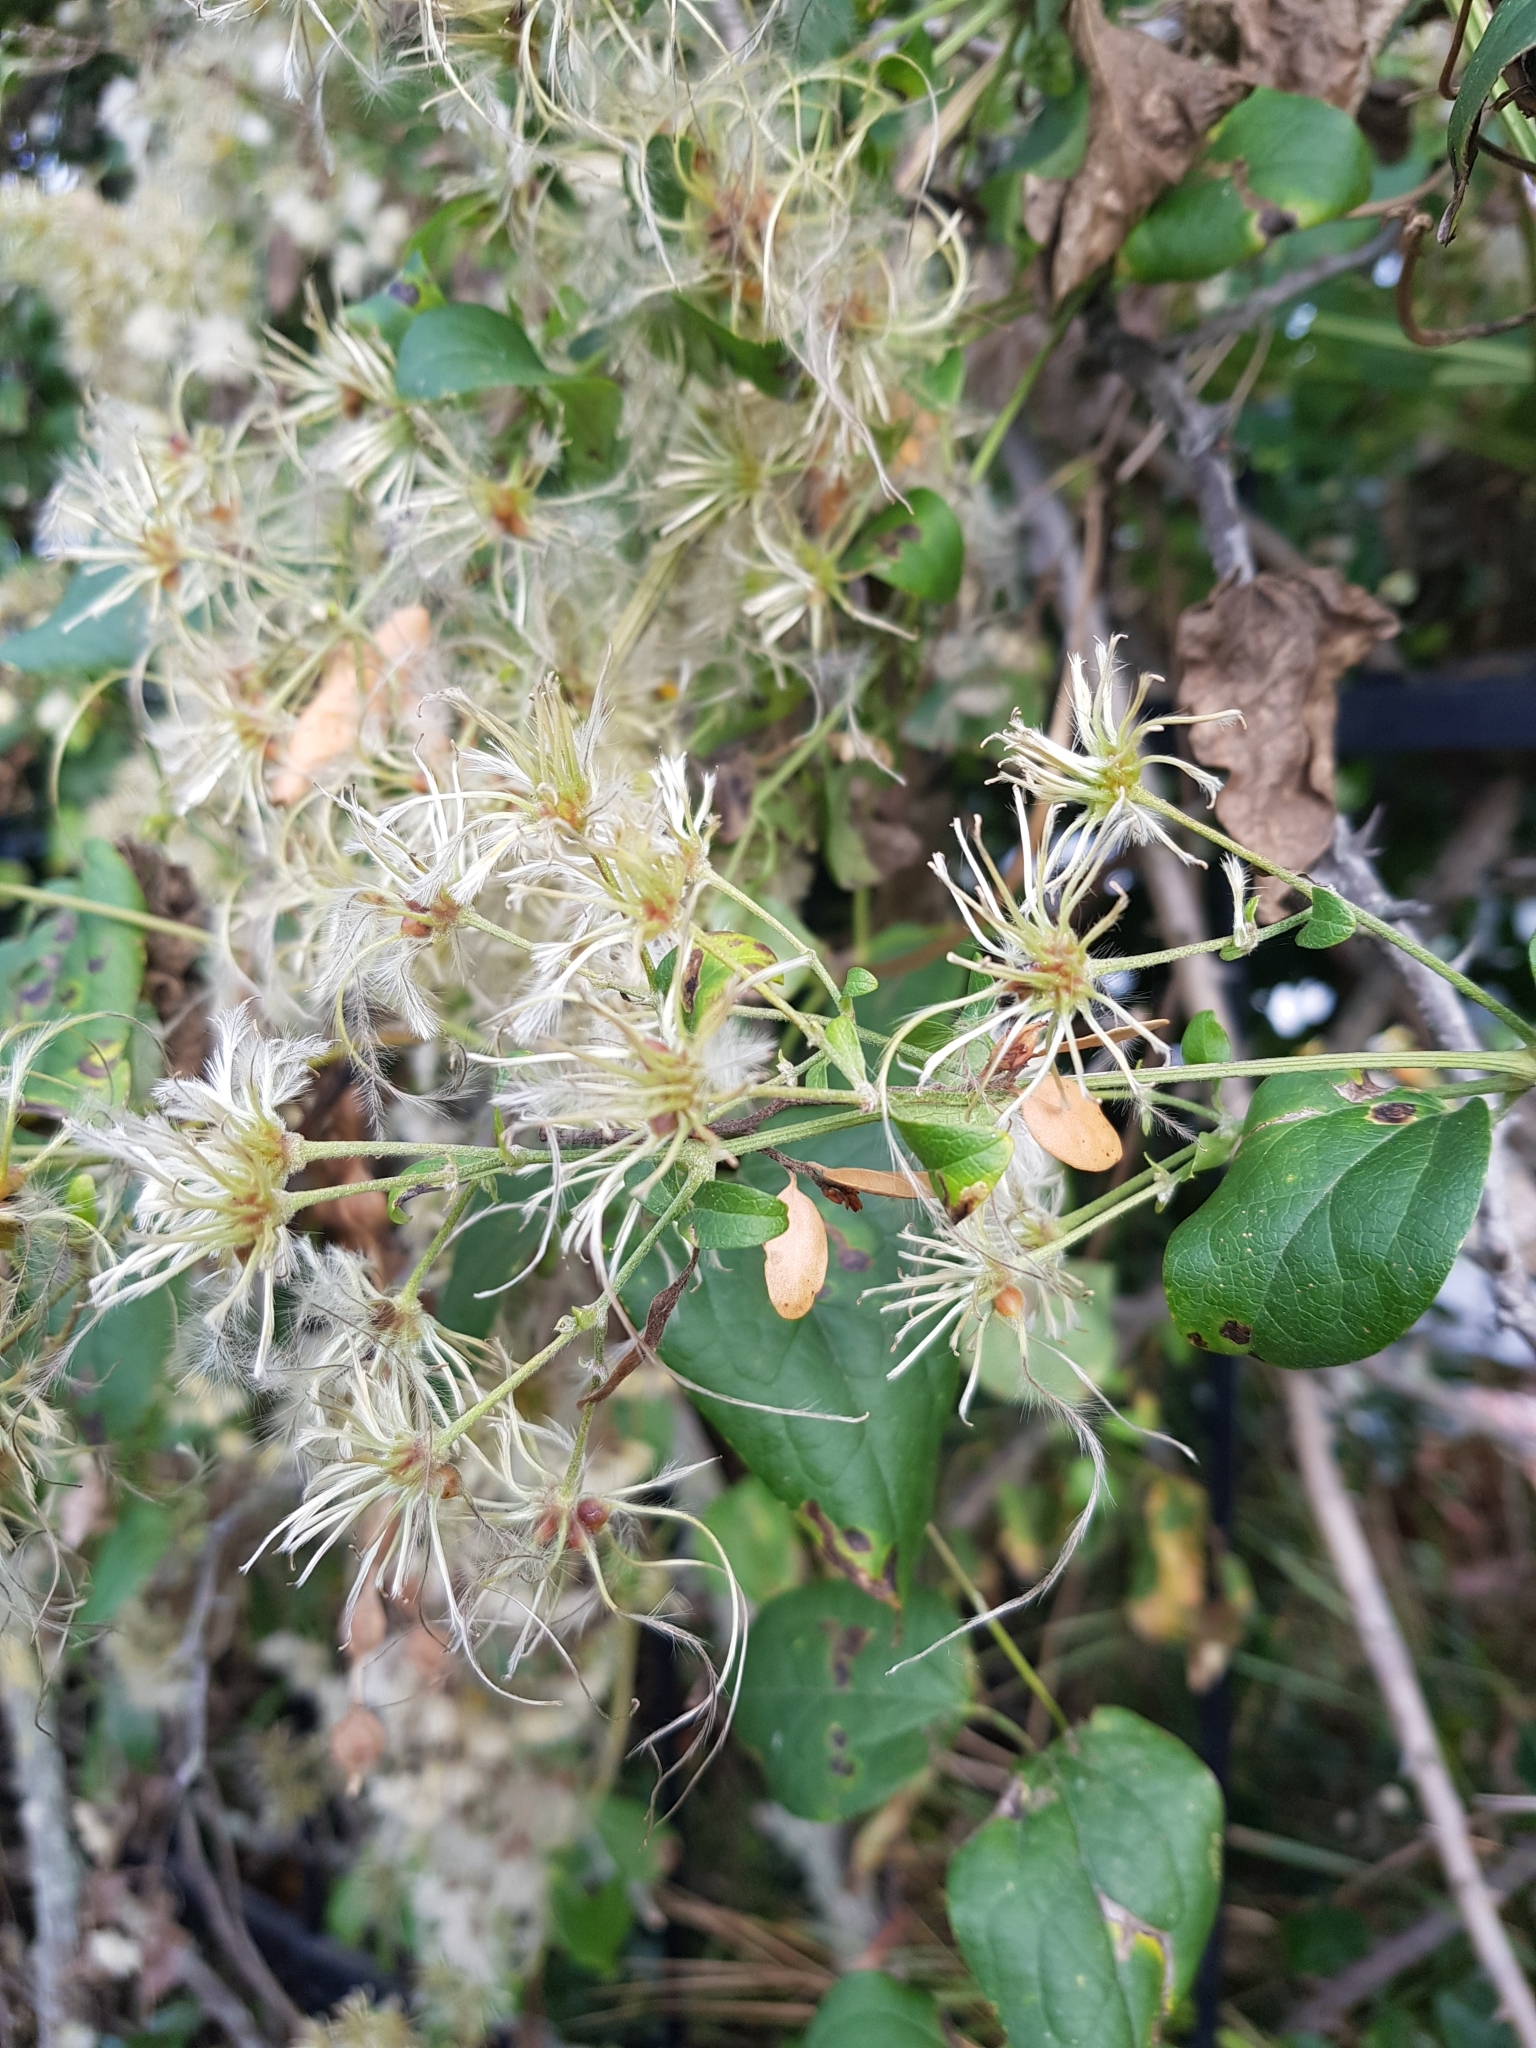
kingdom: Plantae
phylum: Tracheophyta
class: Magnoliopsida
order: Ranunculales
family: Ranunculaceae
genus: Clematis
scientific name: Clematis vitalba
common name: Evergreen clematis
